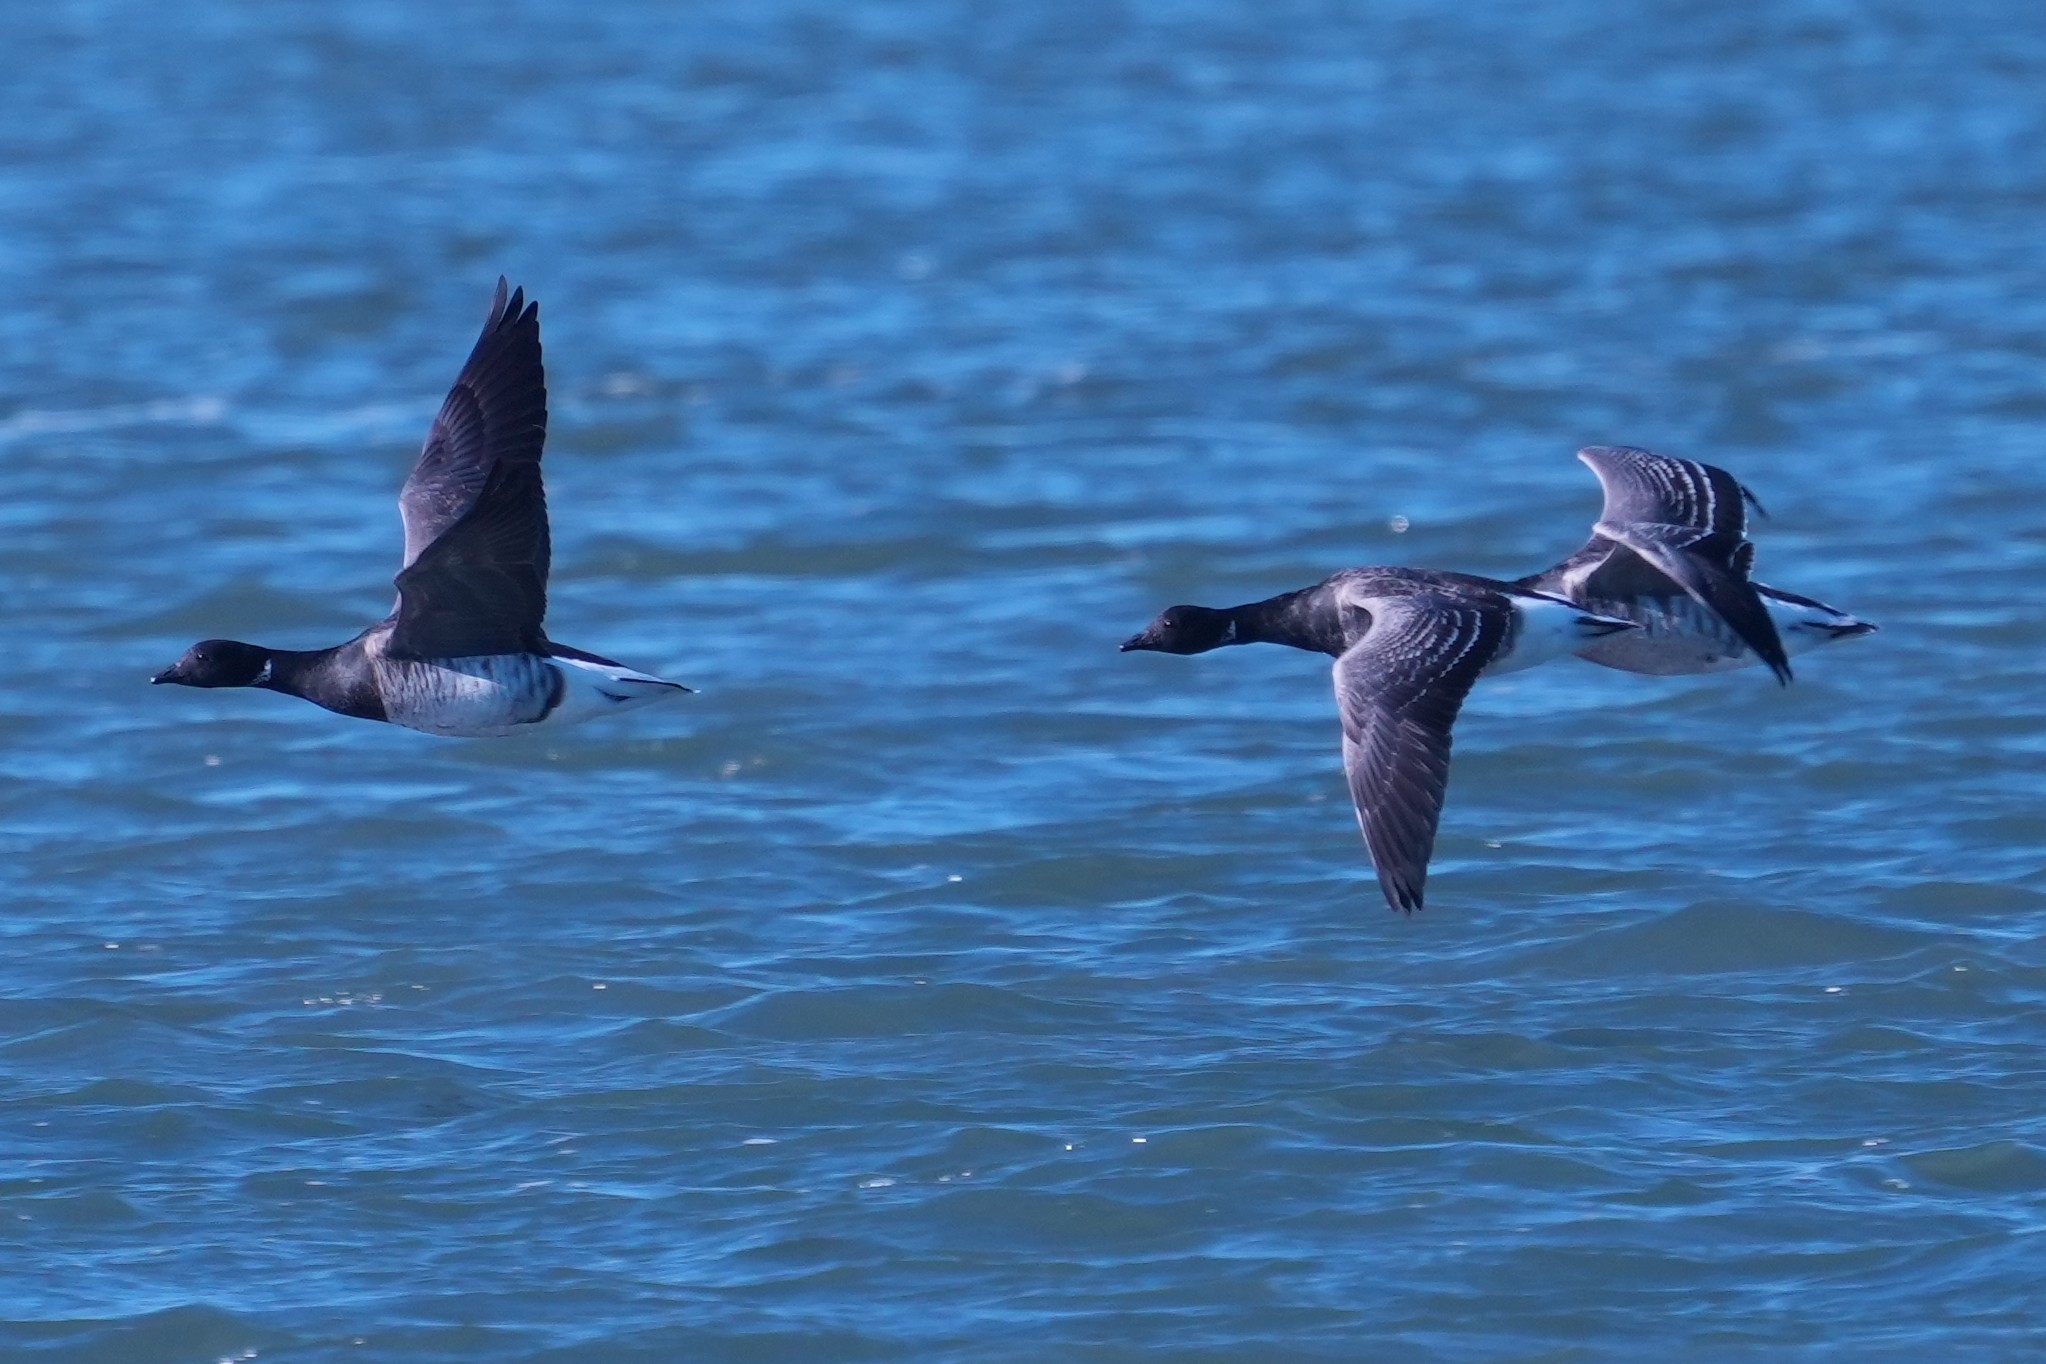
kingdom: Animalia
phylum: Chordata
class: Aves
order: Anseriformes
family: Anatidae
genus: Branta
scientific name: Branta bernicla
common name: Brant goose
